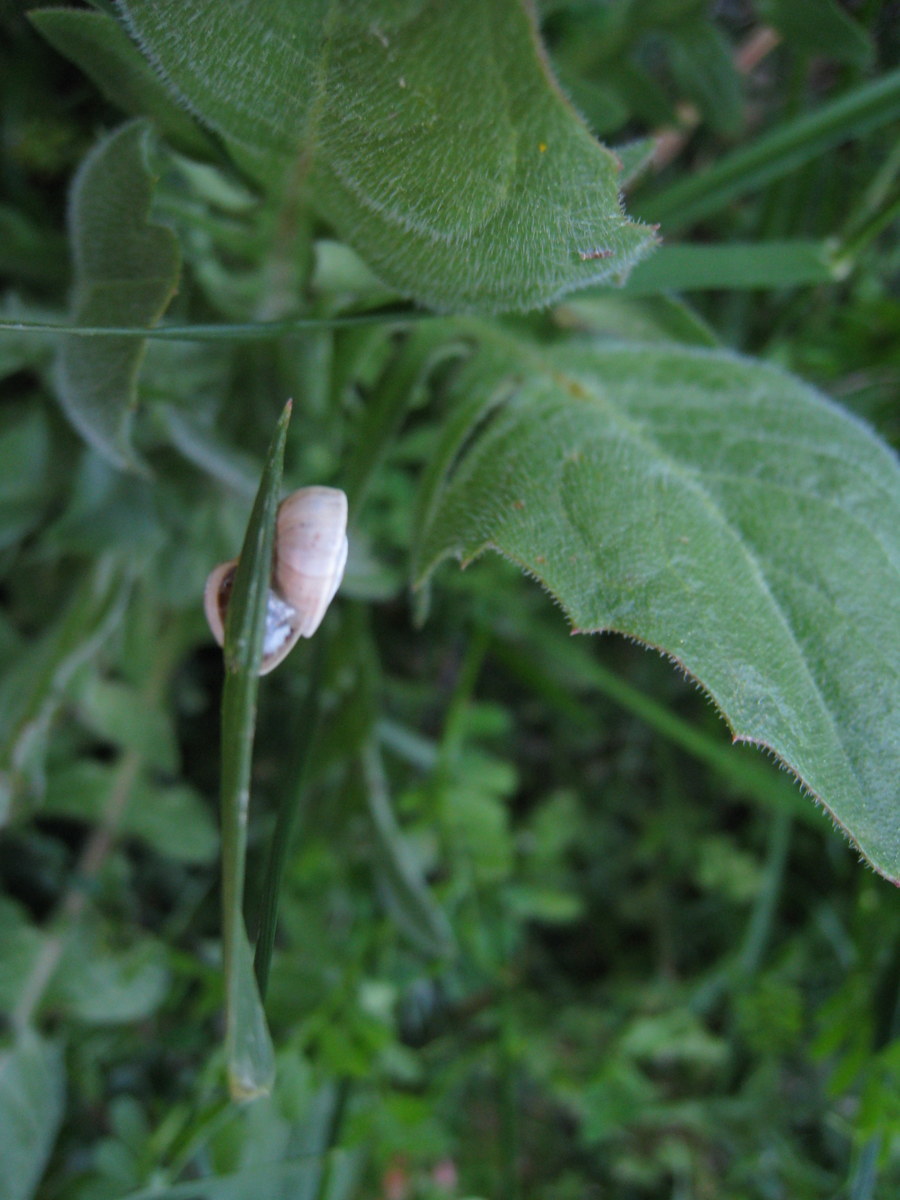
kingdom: Animalia
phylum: Mollusca
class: Gastropoda
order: Stylommatophora
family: Helicidae
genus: Theba
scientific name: Theba pisana
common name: White snail
